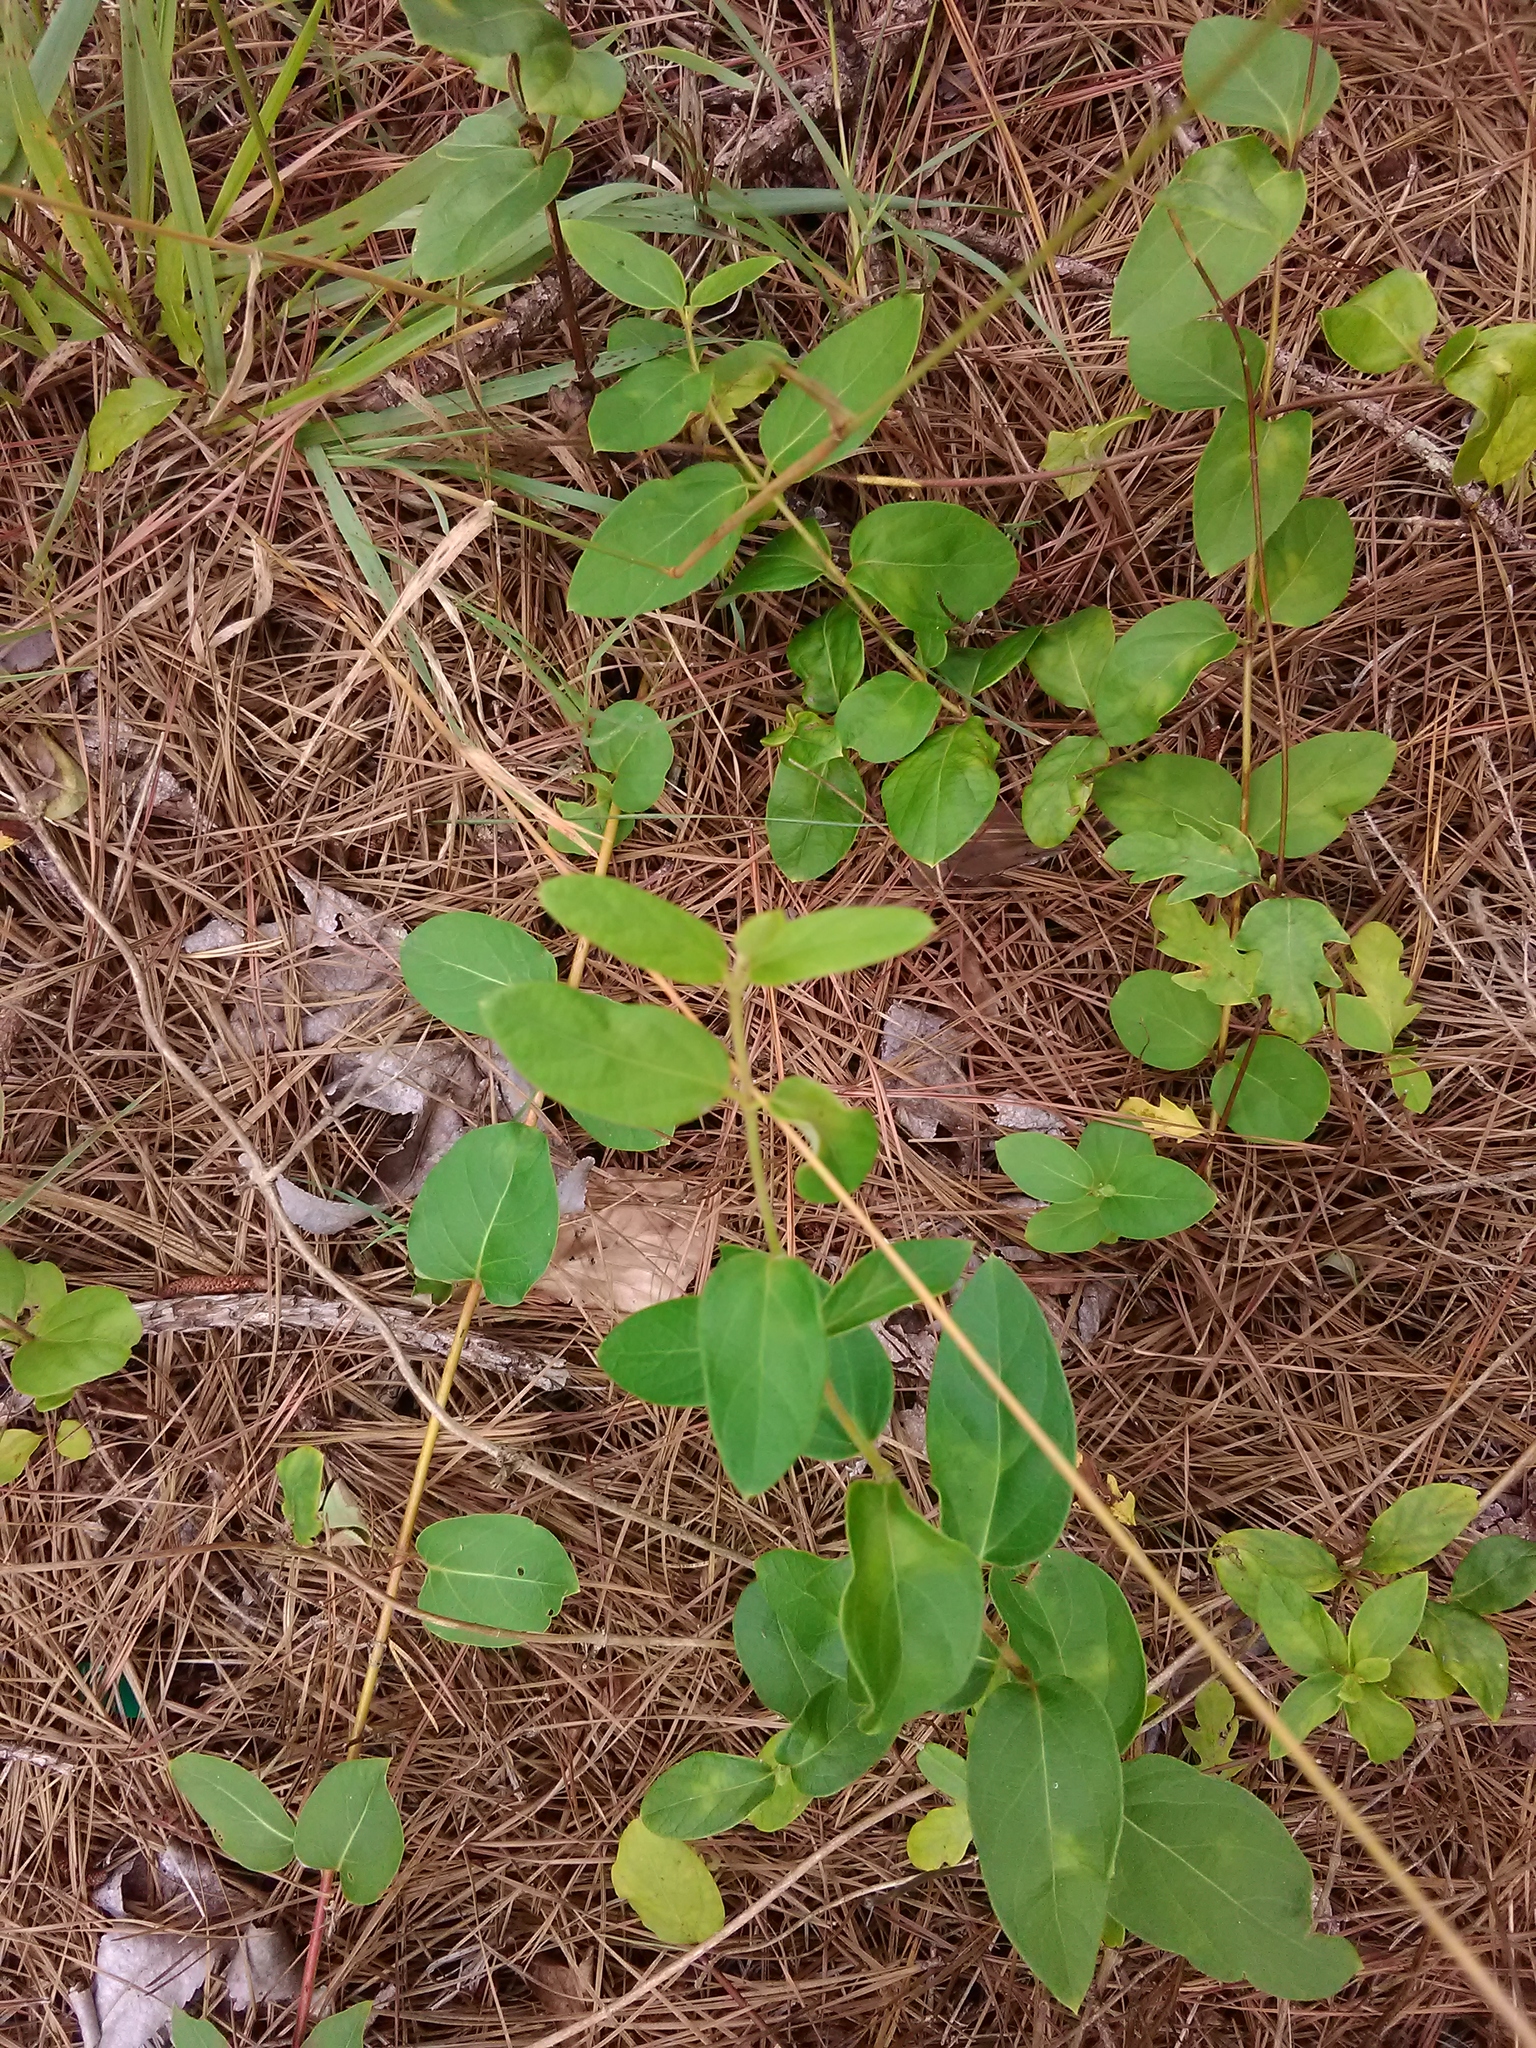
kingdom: Plantae
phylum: Tracheophyta
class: Magnoliopsida
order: Dipsacales
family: Caprifoliaceae
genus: Lonicera
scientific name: Lonicera japonica
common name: Japanese honeysuckle
